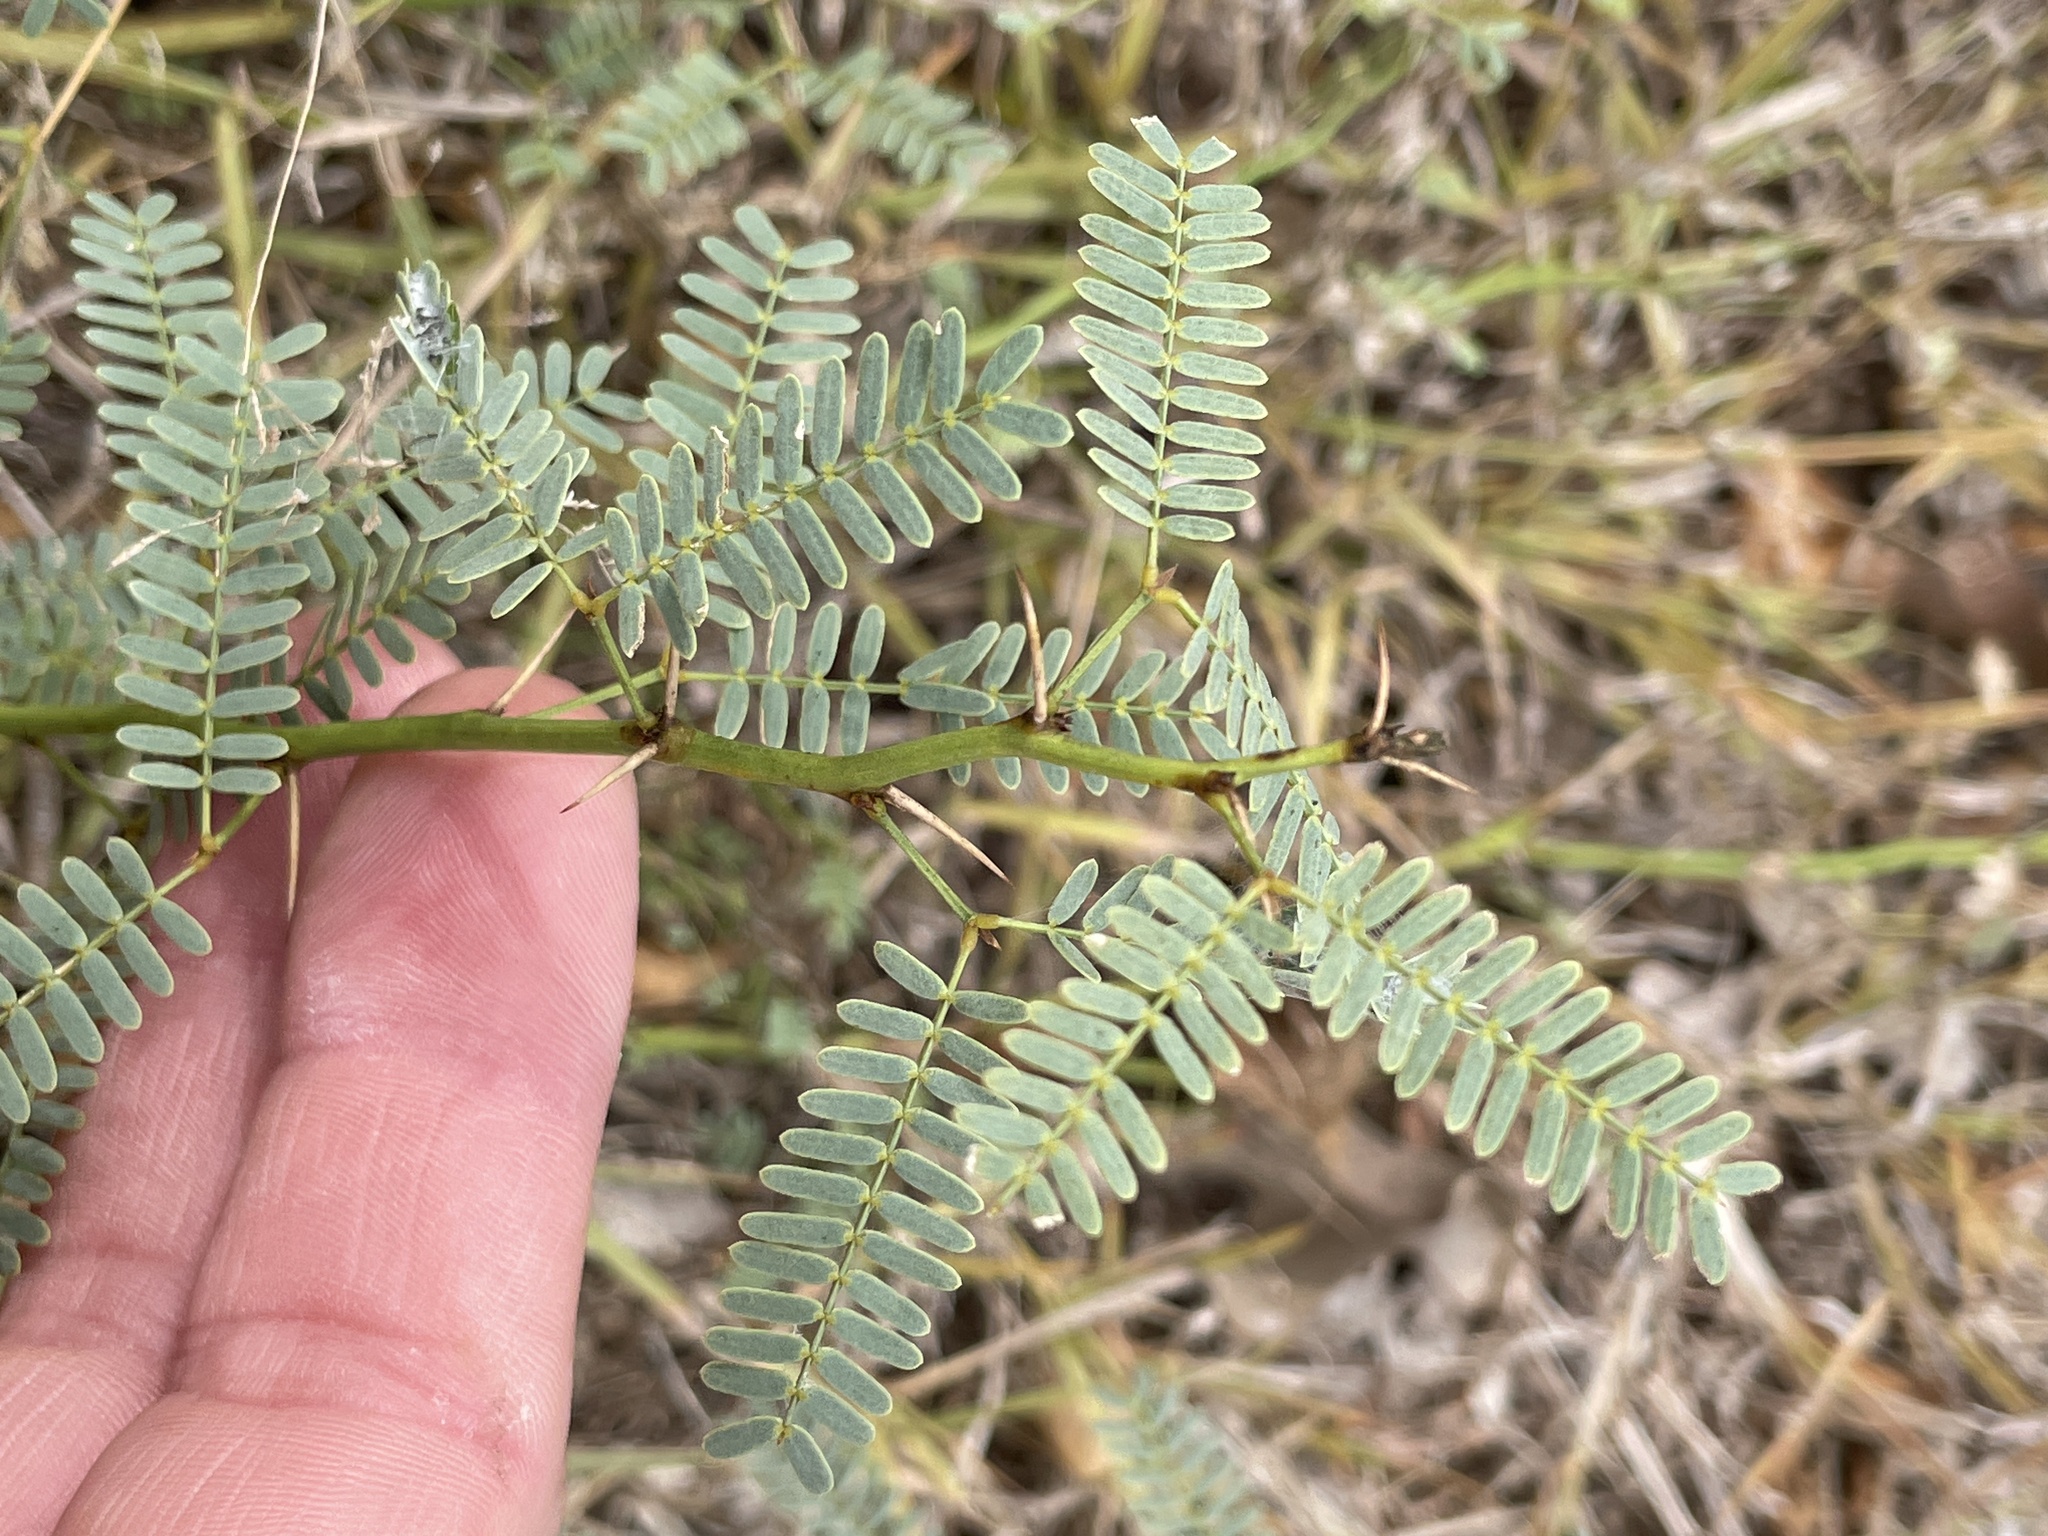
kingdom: Plantae
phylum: Tracheophyta
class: Magnoliopsida
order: Fabales
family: Fabaceae
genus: Prosopis
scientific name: Prosopis glandulosa
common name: Honey mesquite
